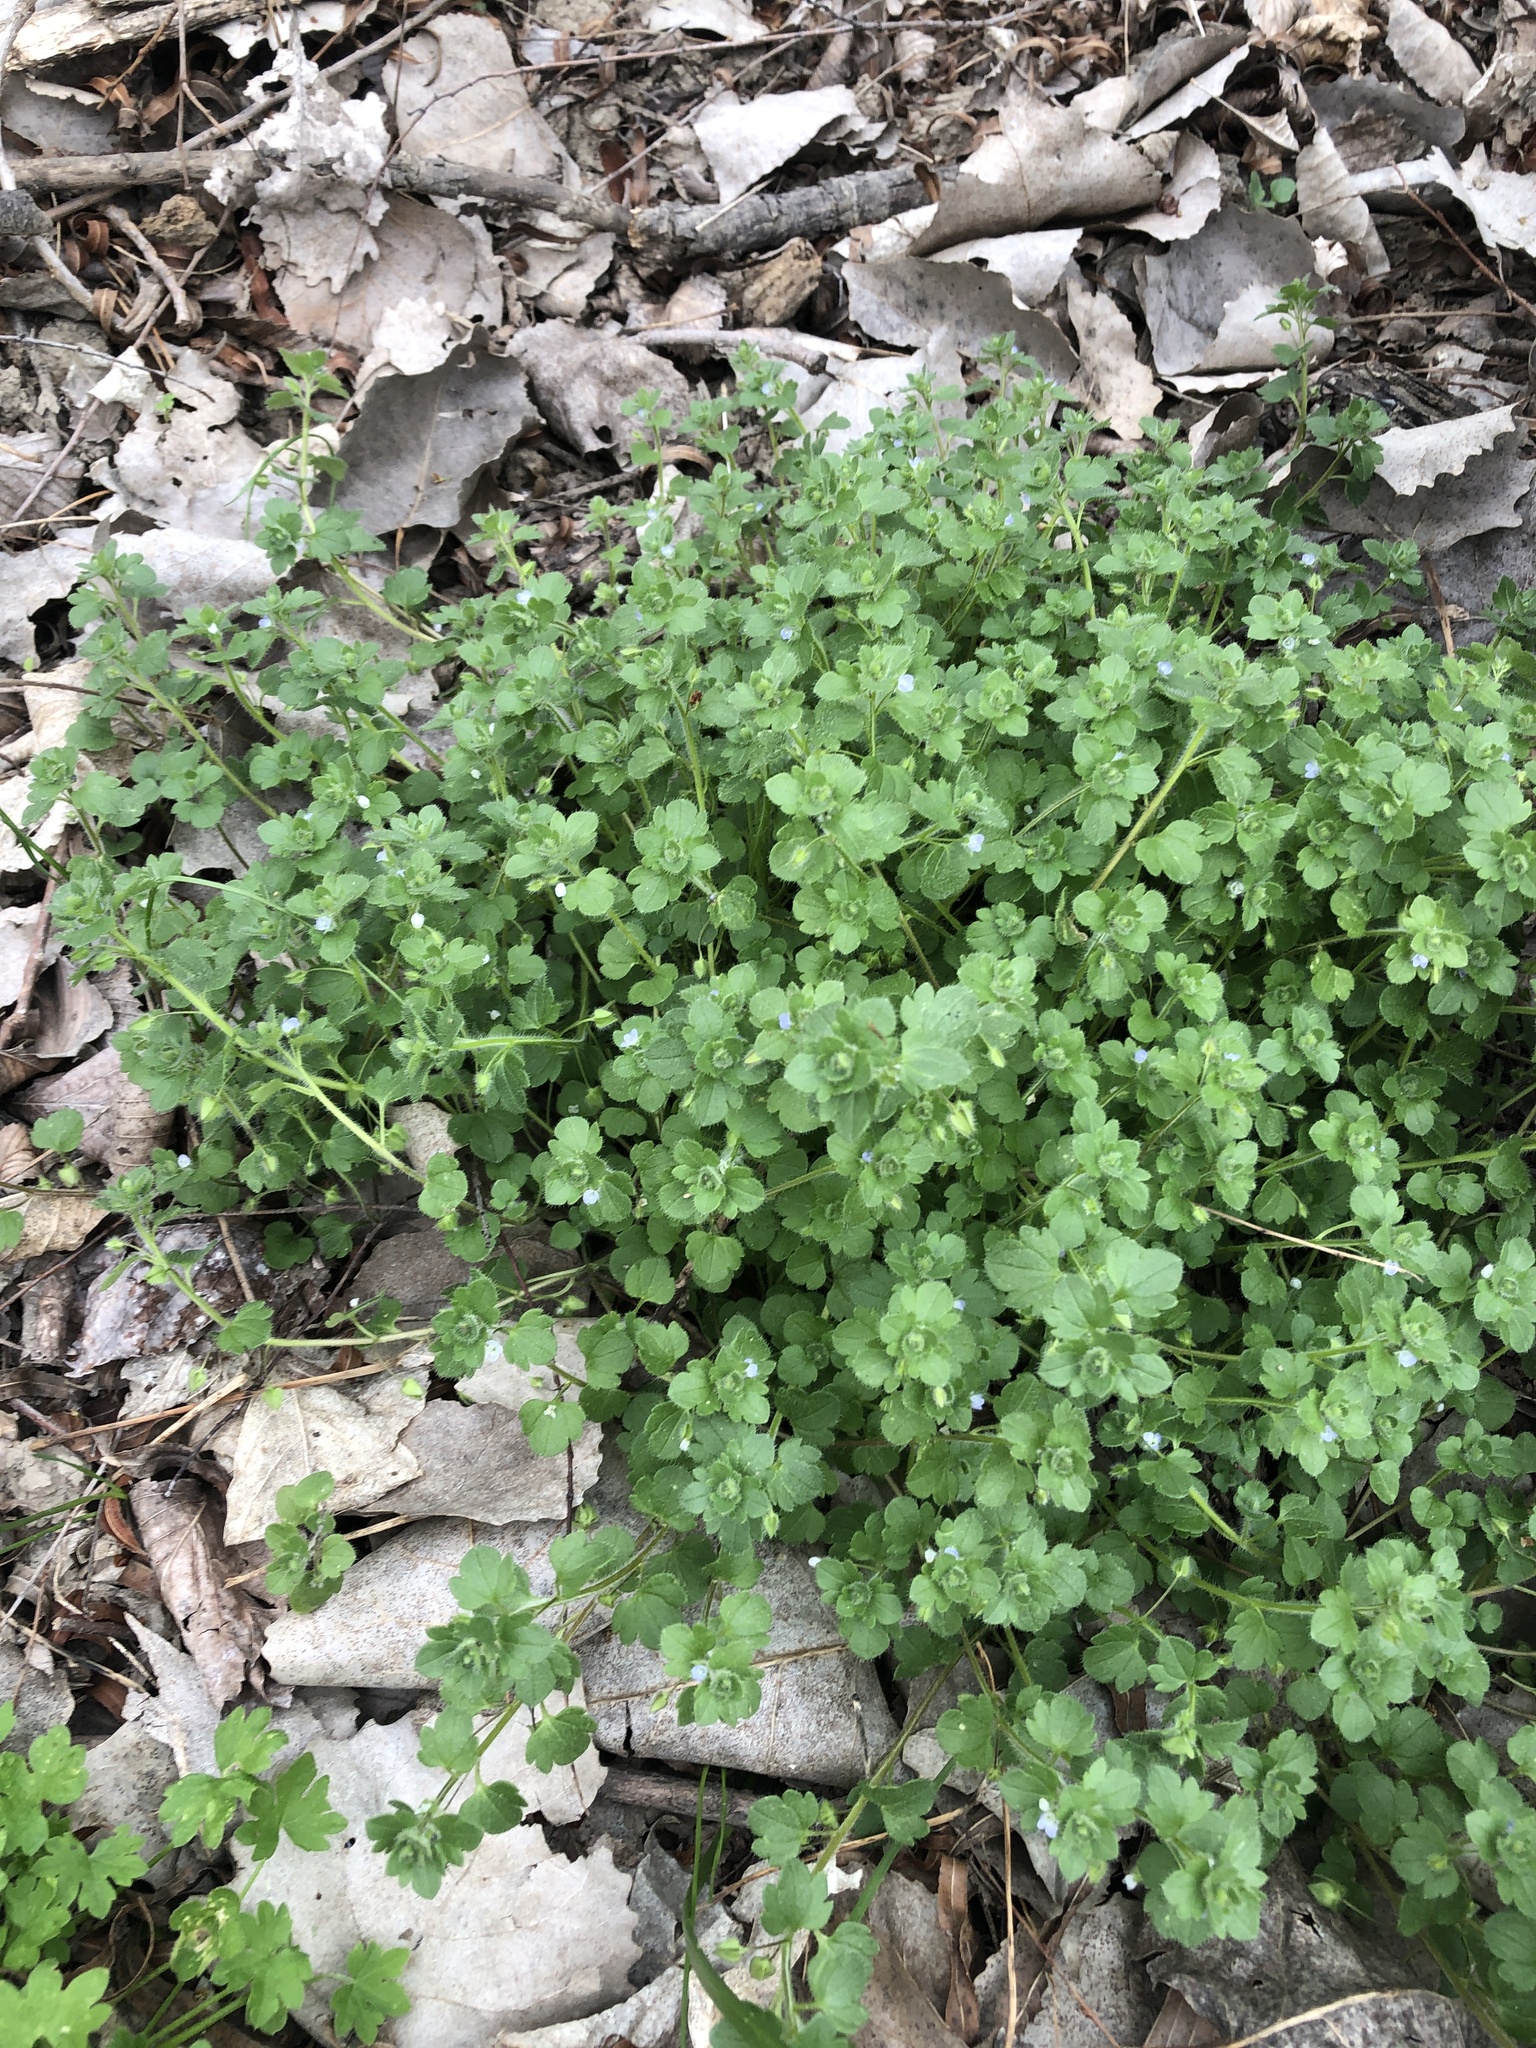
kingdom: Plantae
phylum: Tracheophyta
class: Magnoliopsida
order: Lamiales
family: Plantaginaceae
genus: Veronica
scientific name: Veronica hederifolia
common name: Ivy-leaved speedwell
